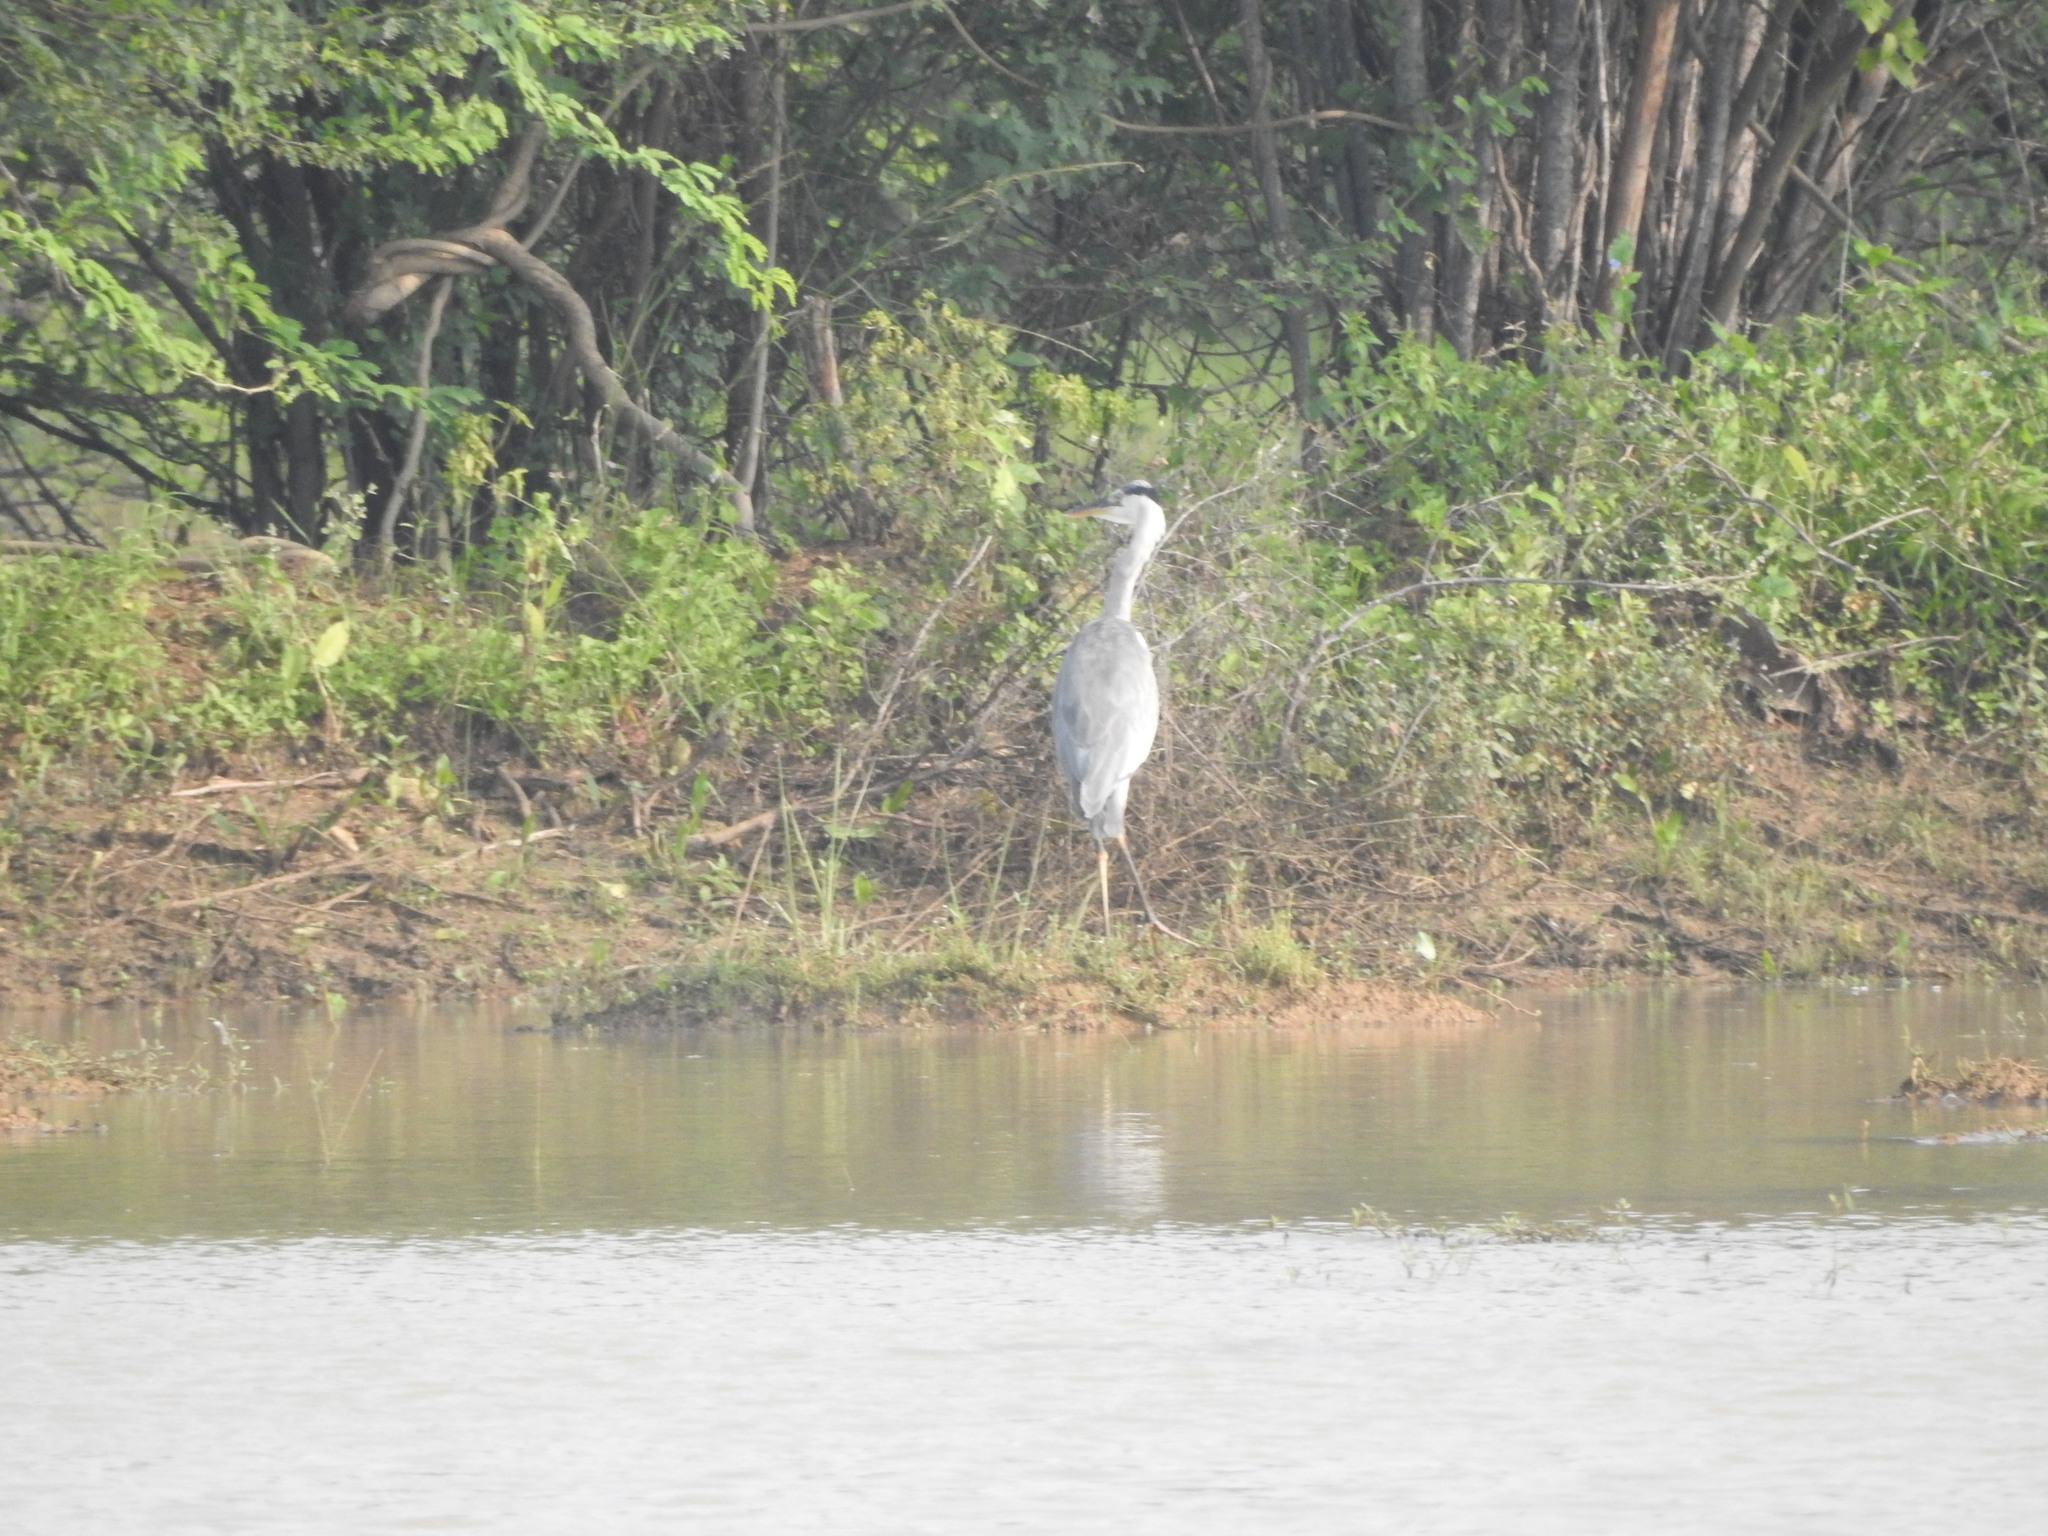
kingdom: Animalia
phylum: Chordata
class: Aves
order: Pelecaniformes
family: Ardeidae
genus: Ardea
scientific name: Ardea cinerea
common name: Grey heron
